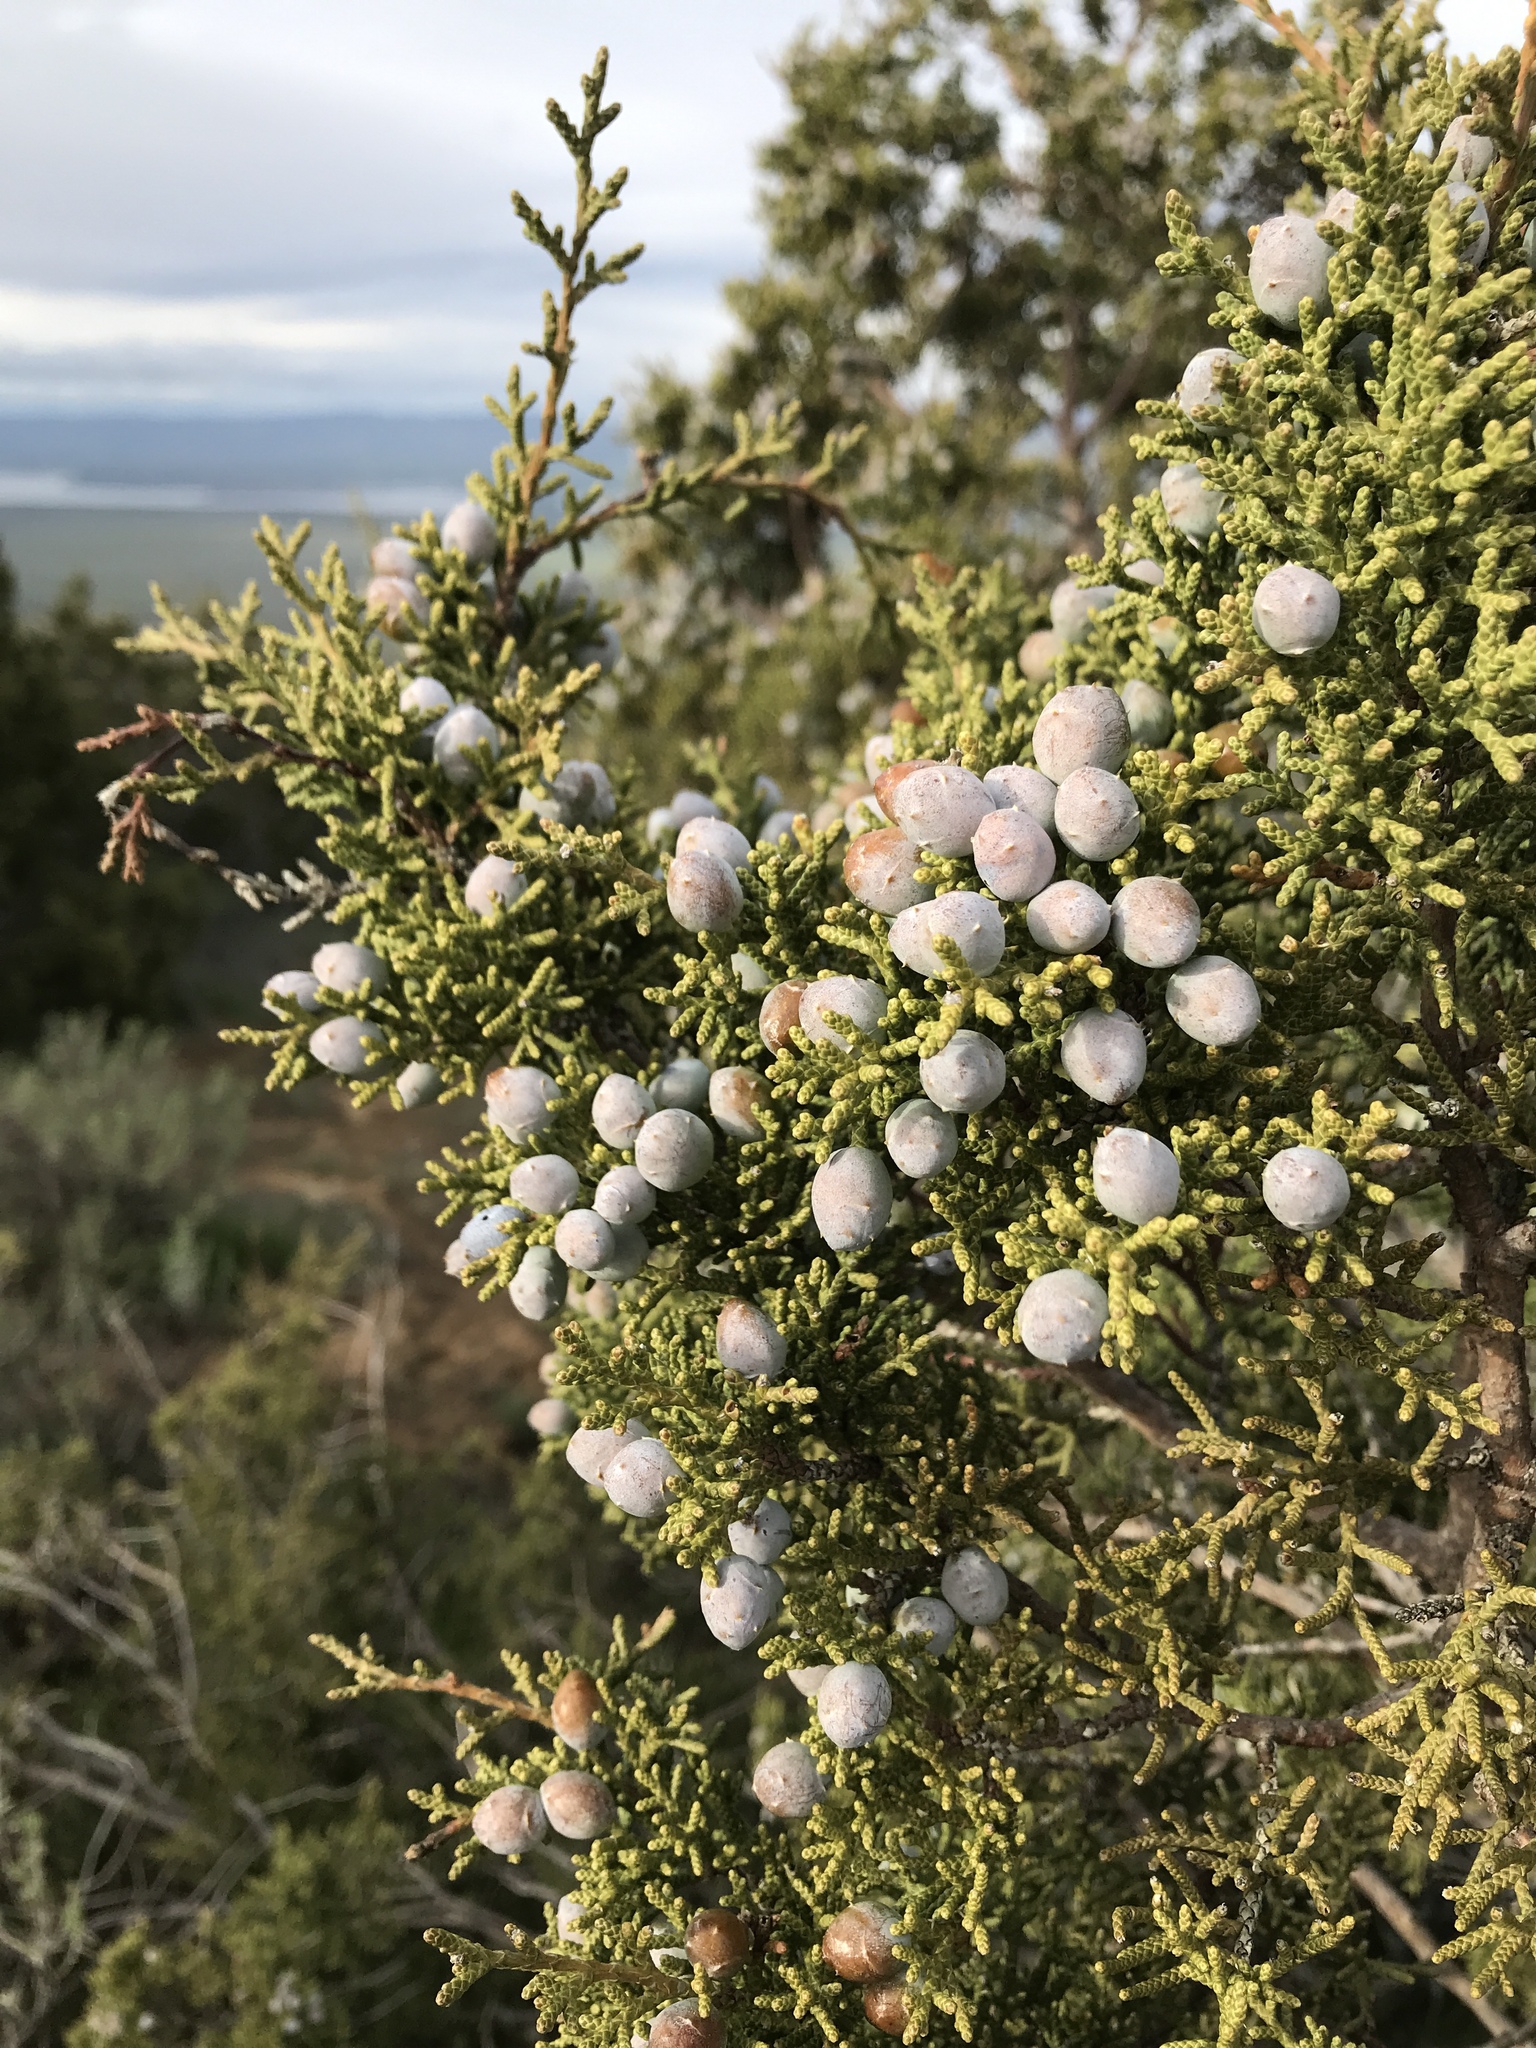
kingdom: Plantae
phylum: Tracheophyta
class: Pinopsida
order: Pinales
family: Cupressaceae
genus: Juniperus
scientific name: Juniperus californica
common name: California juniper
